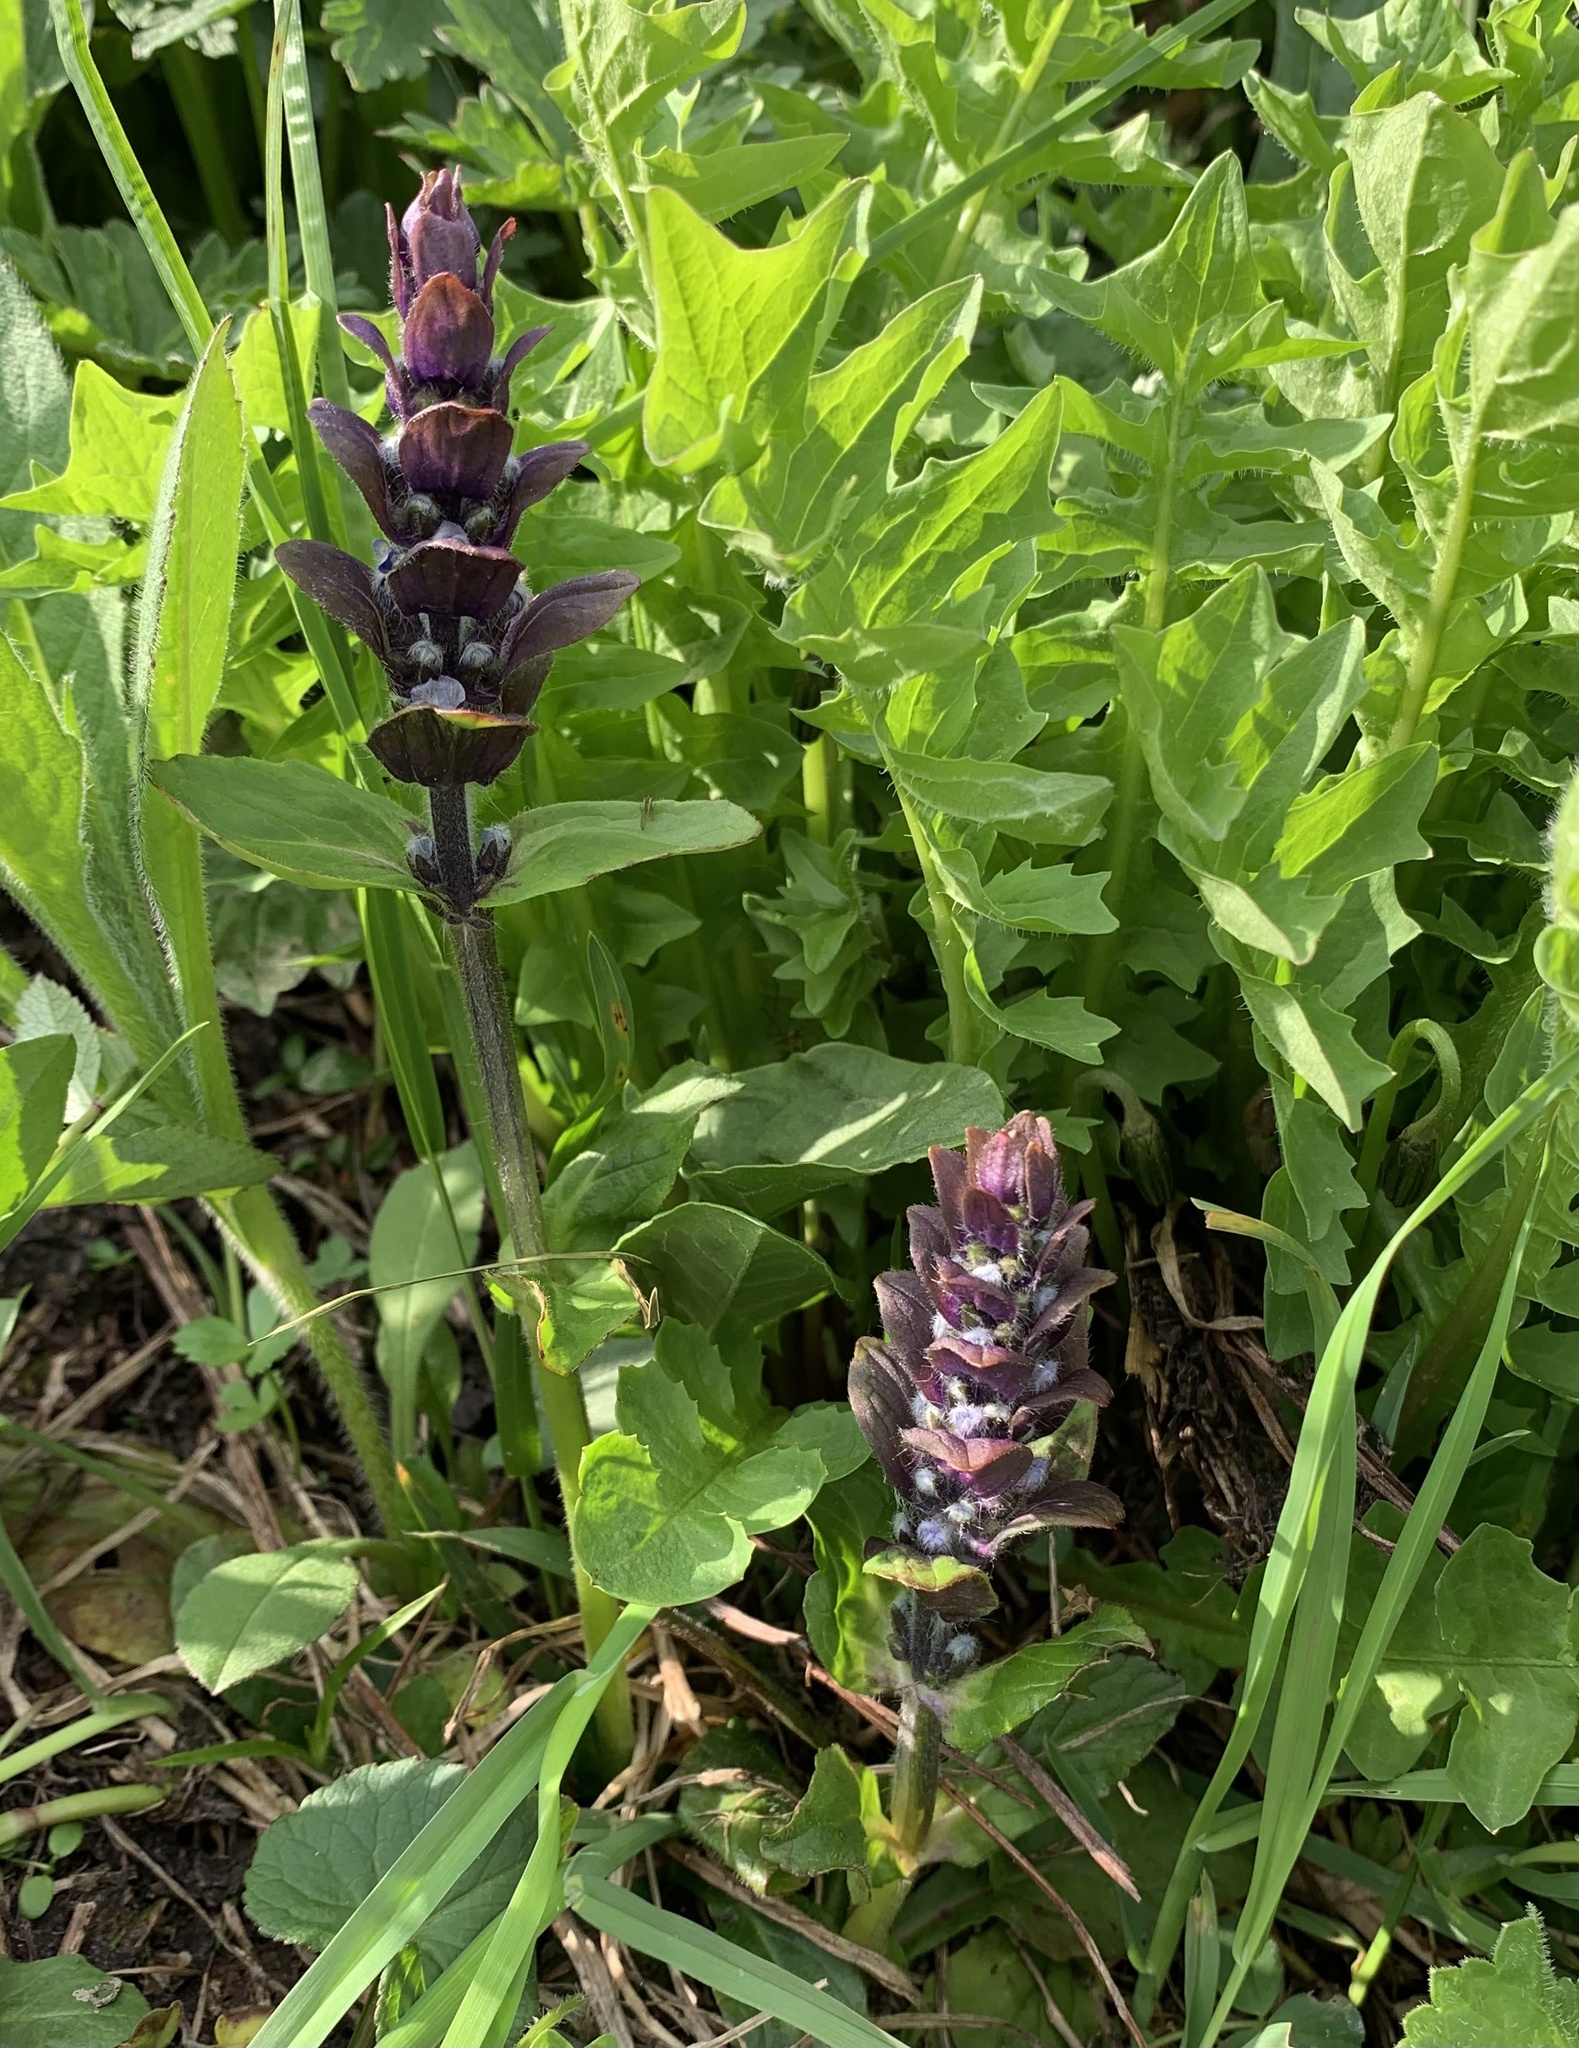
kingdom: Plantae
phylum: Tracheophyta
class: Magnoliopsida
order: Lamiales
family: Lamiaceae
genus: Ajuga
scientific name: Ajuga reptans
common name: Bugle
